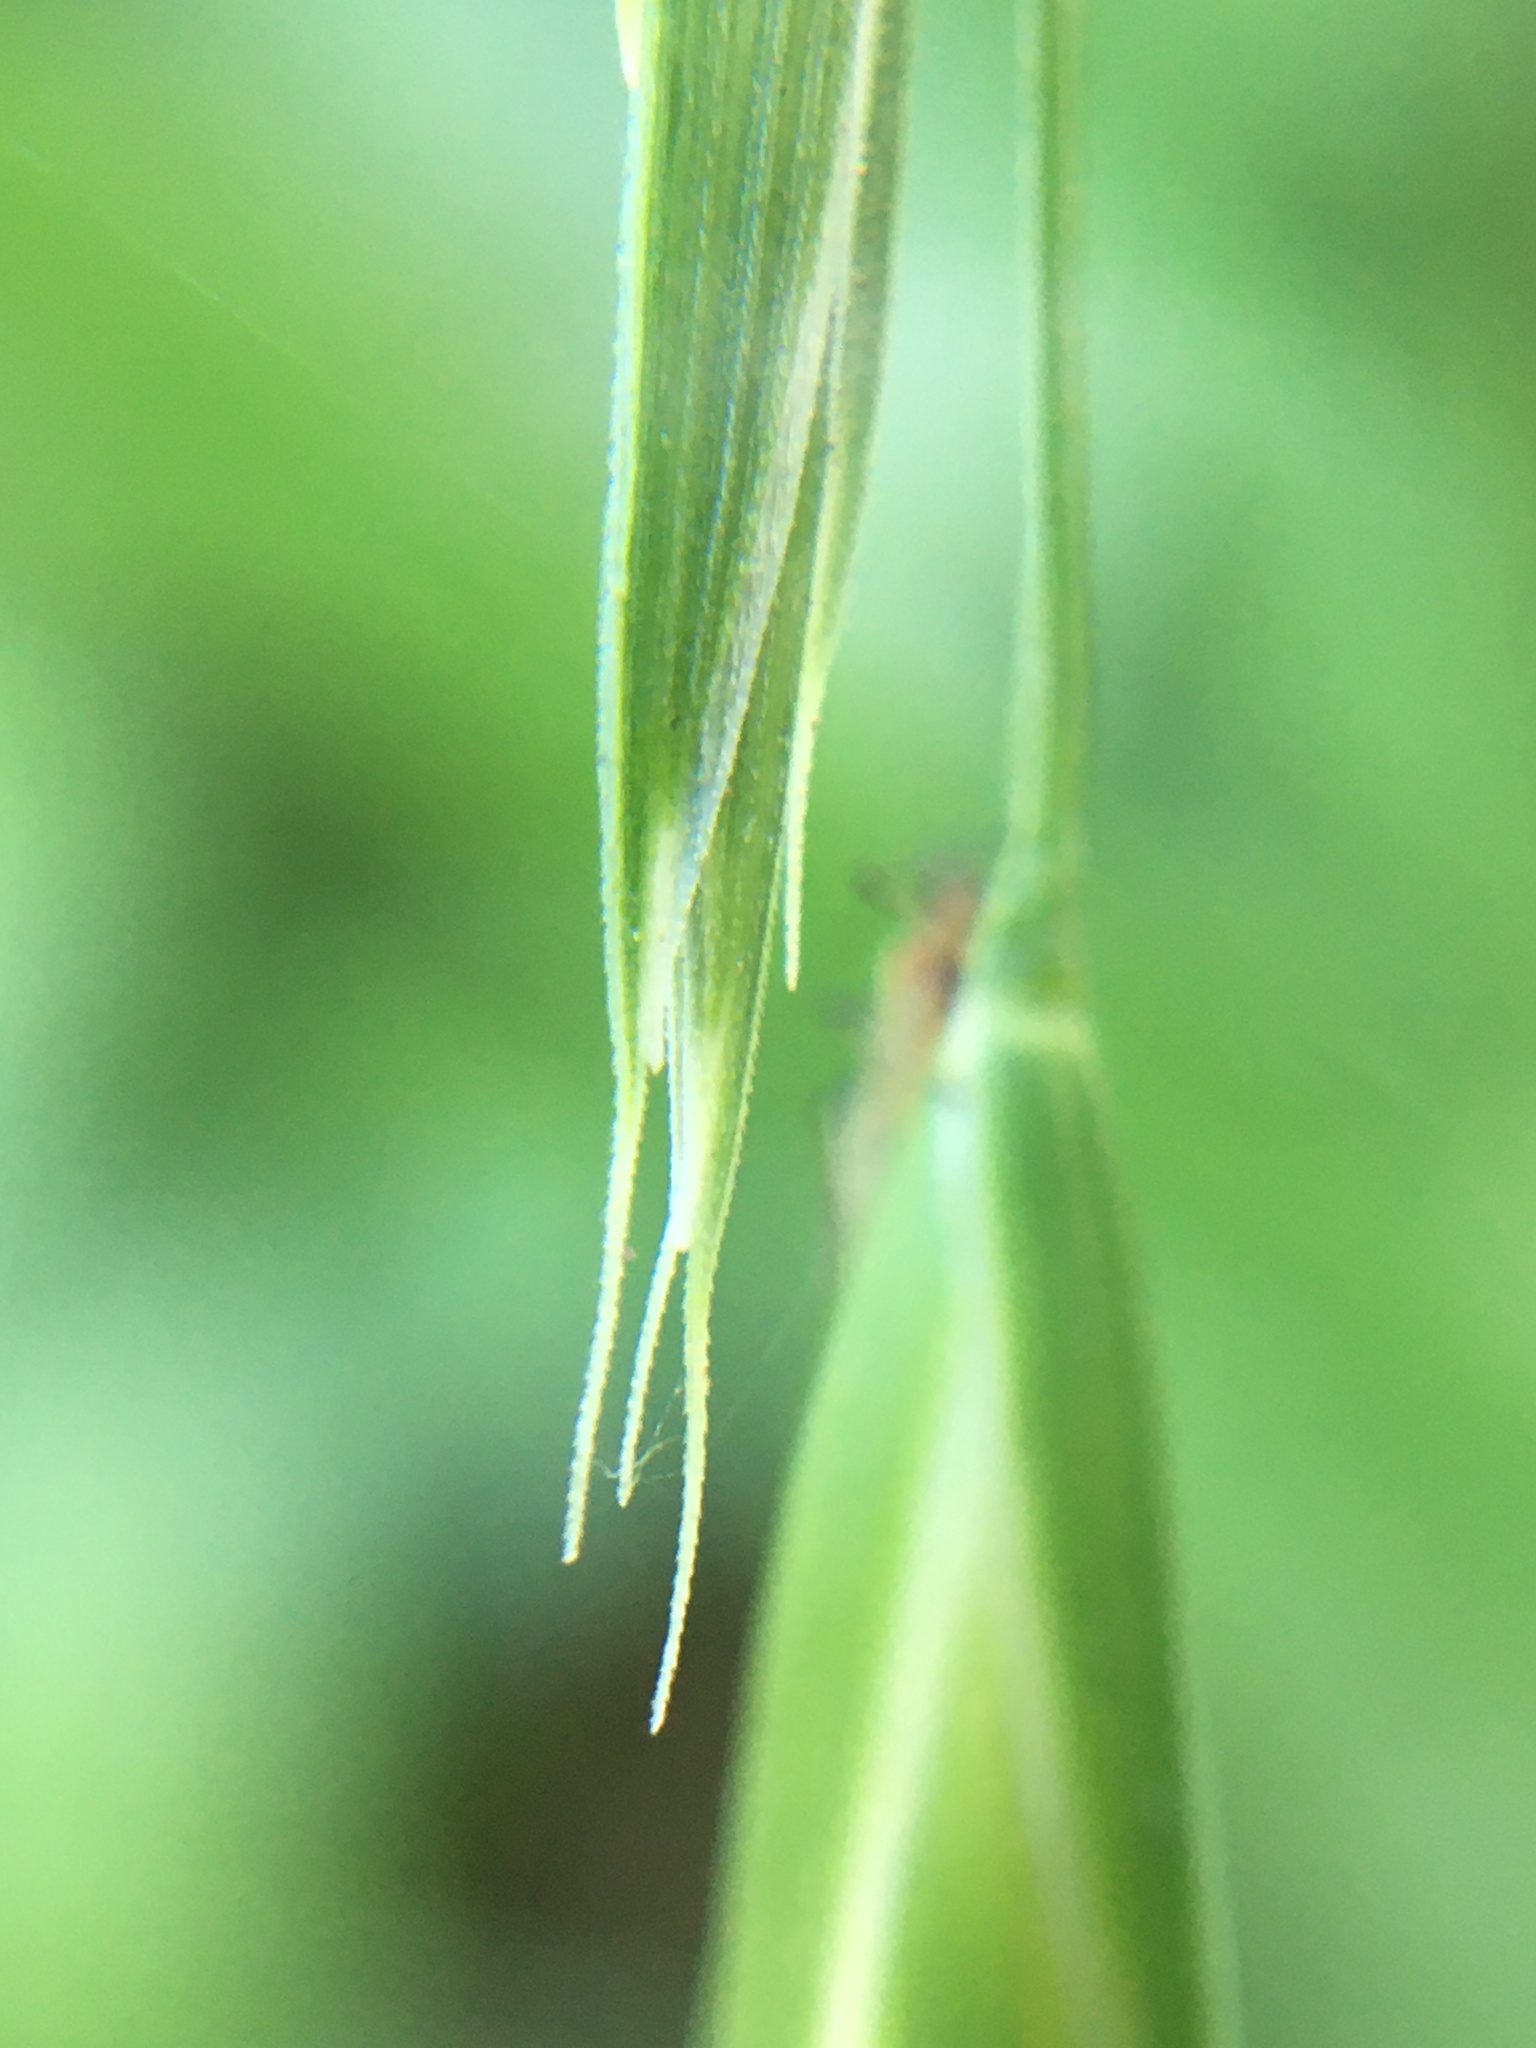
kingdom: Plantae
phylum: Tracheophyta
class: Liliopsida
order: Poales
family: Poaceae
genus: Bromus
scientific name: Bromus catharticus
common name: Rescuegrass
